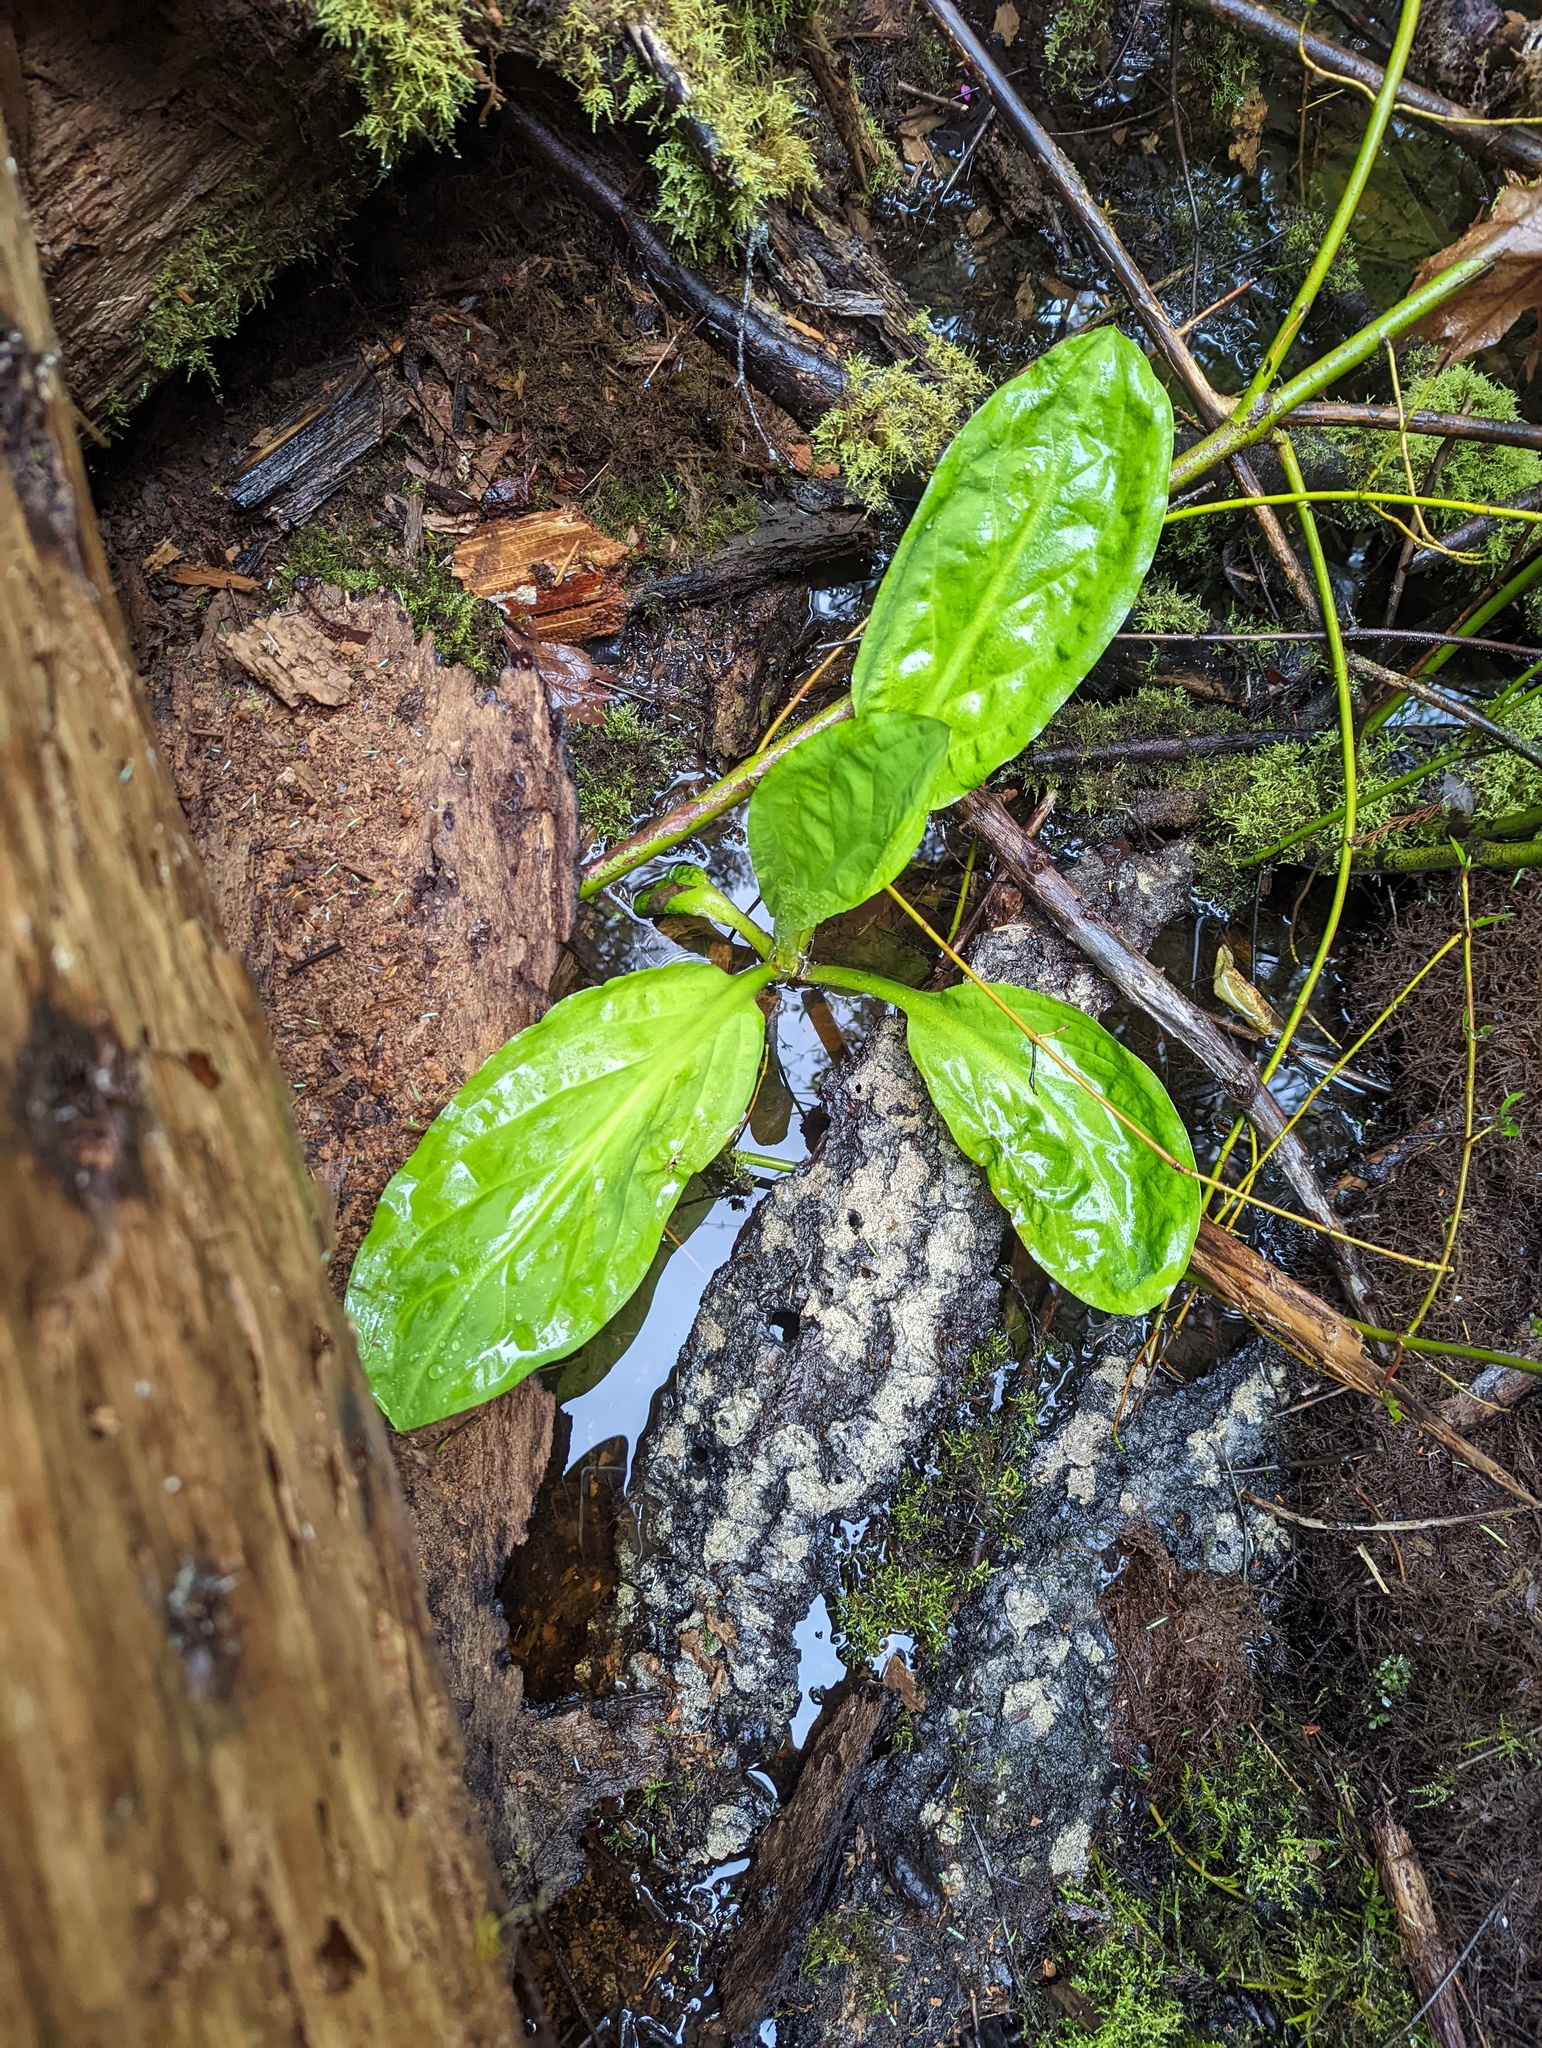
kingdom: Plantae
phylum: Tracheophyta
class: Liliopsida
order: Alismatales
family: Araceae
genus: Lysichiton
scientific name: Lysichiton americanus
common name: American skunk cabbage
